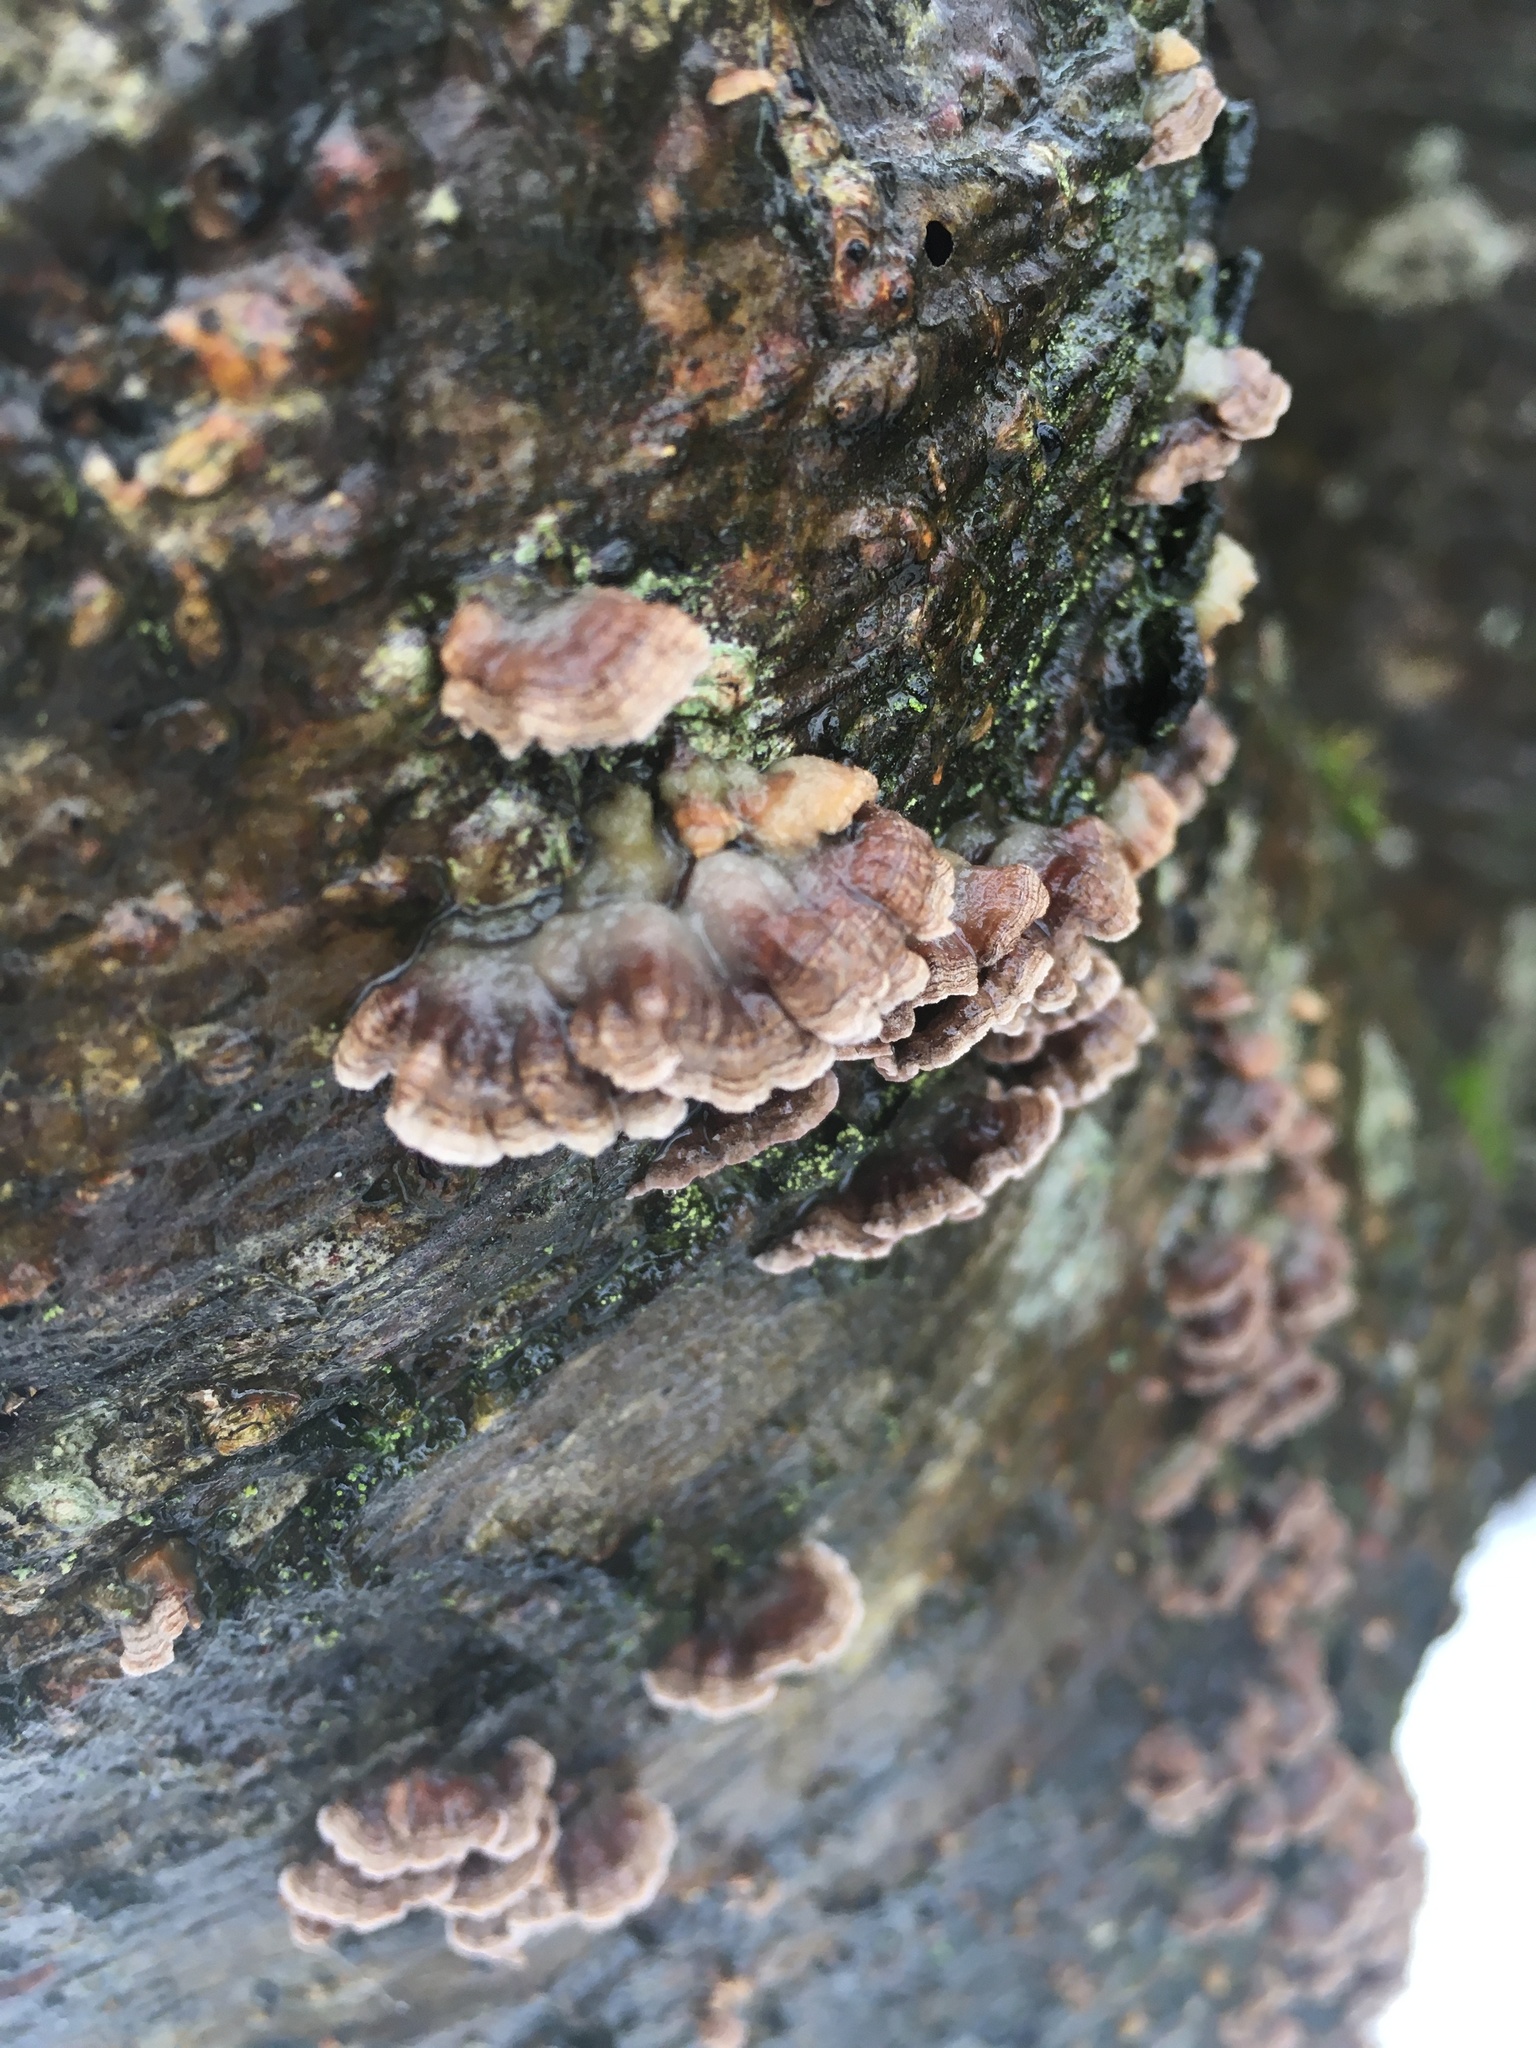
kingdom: Fungi
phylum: Basidiomycota
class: Agaricomycetes
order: Polyporales
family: Phanerochaetaceae
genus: Bjerkandera
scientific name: Bjerkandera adusta
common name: Smoky bracket
